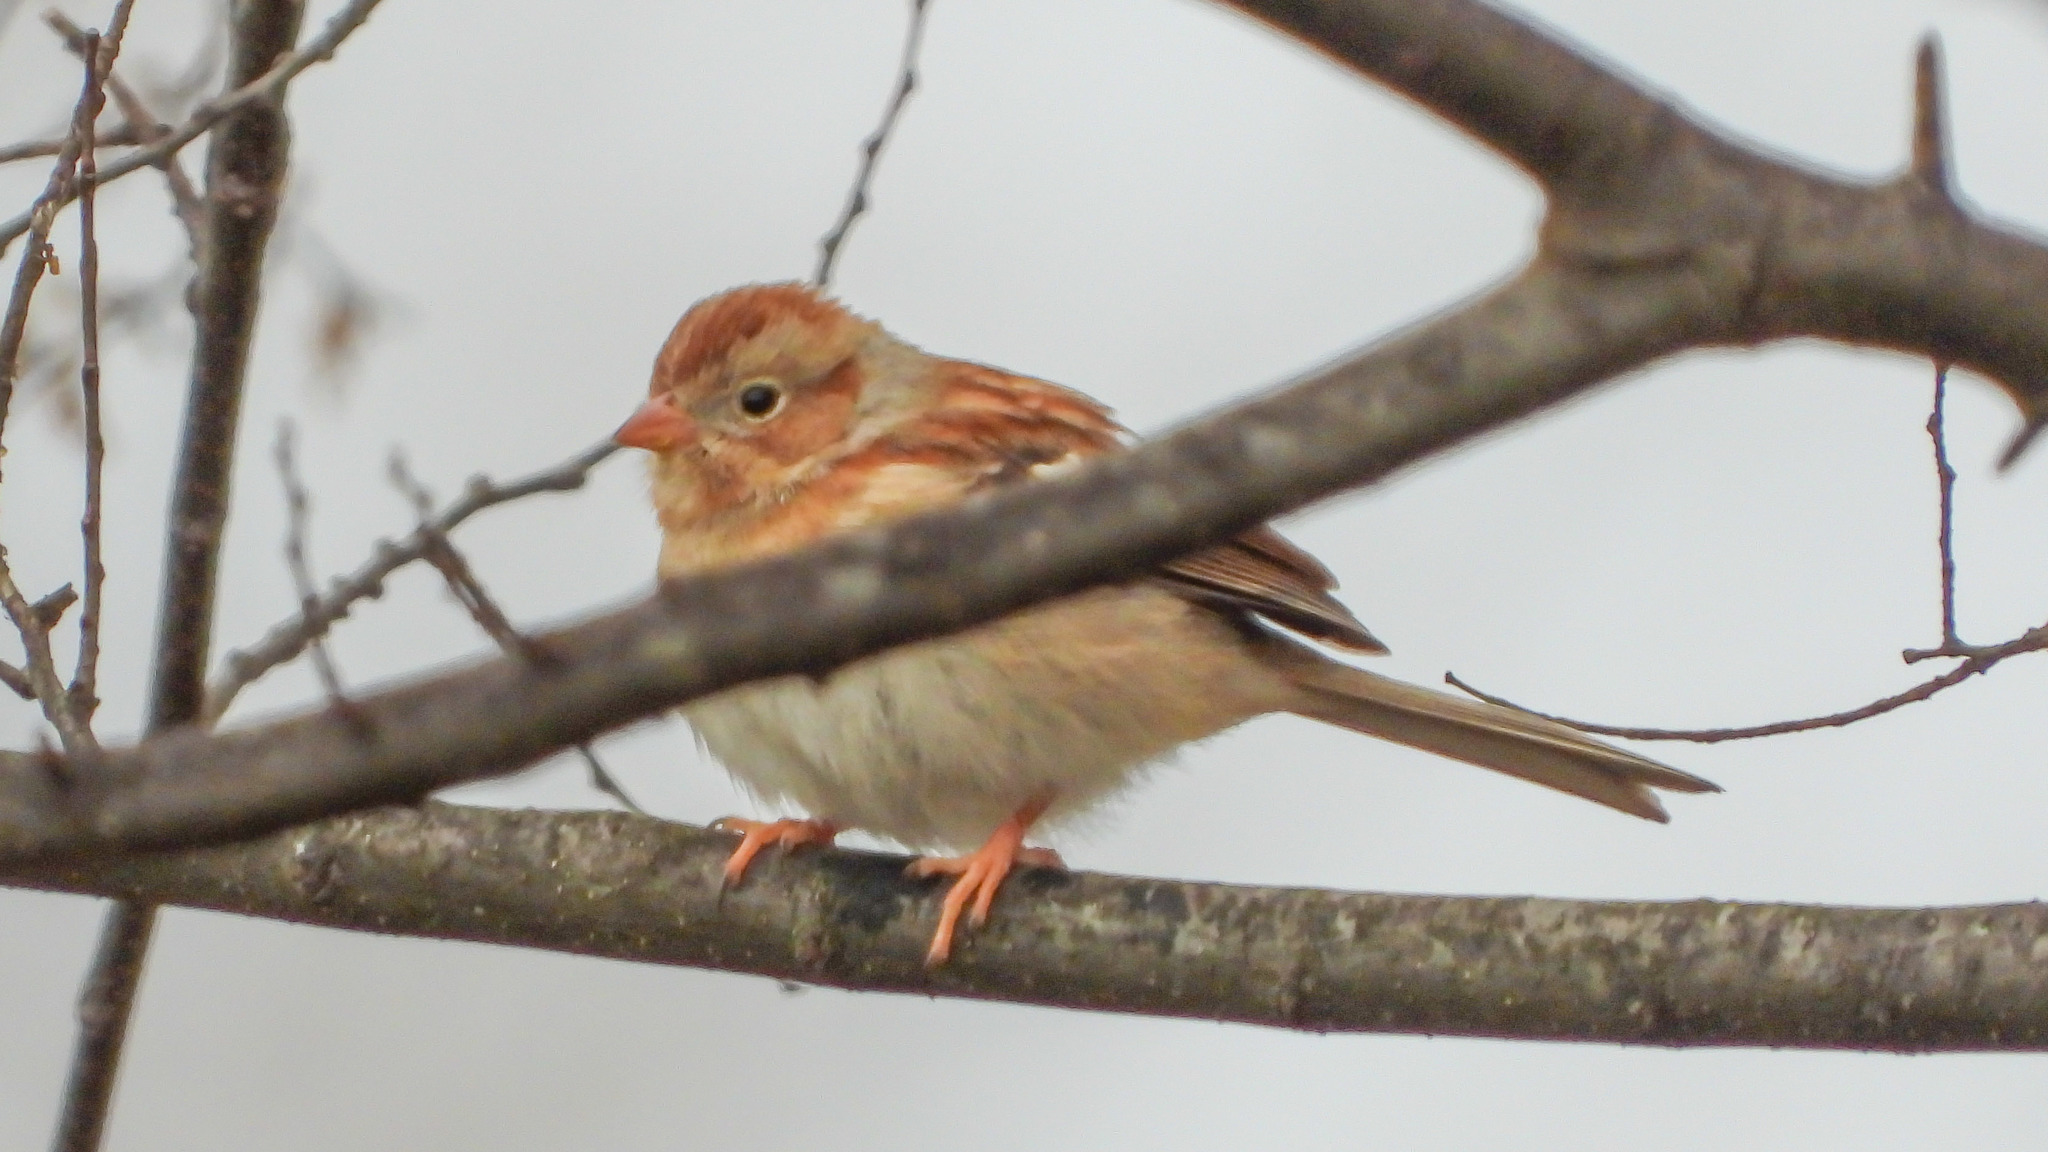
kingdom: Animalia
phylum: Chordata
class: Aves
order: Passeriformes
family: Passerellidae
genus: Spizella
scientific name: Spizella pusilla
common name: Field sparrow
